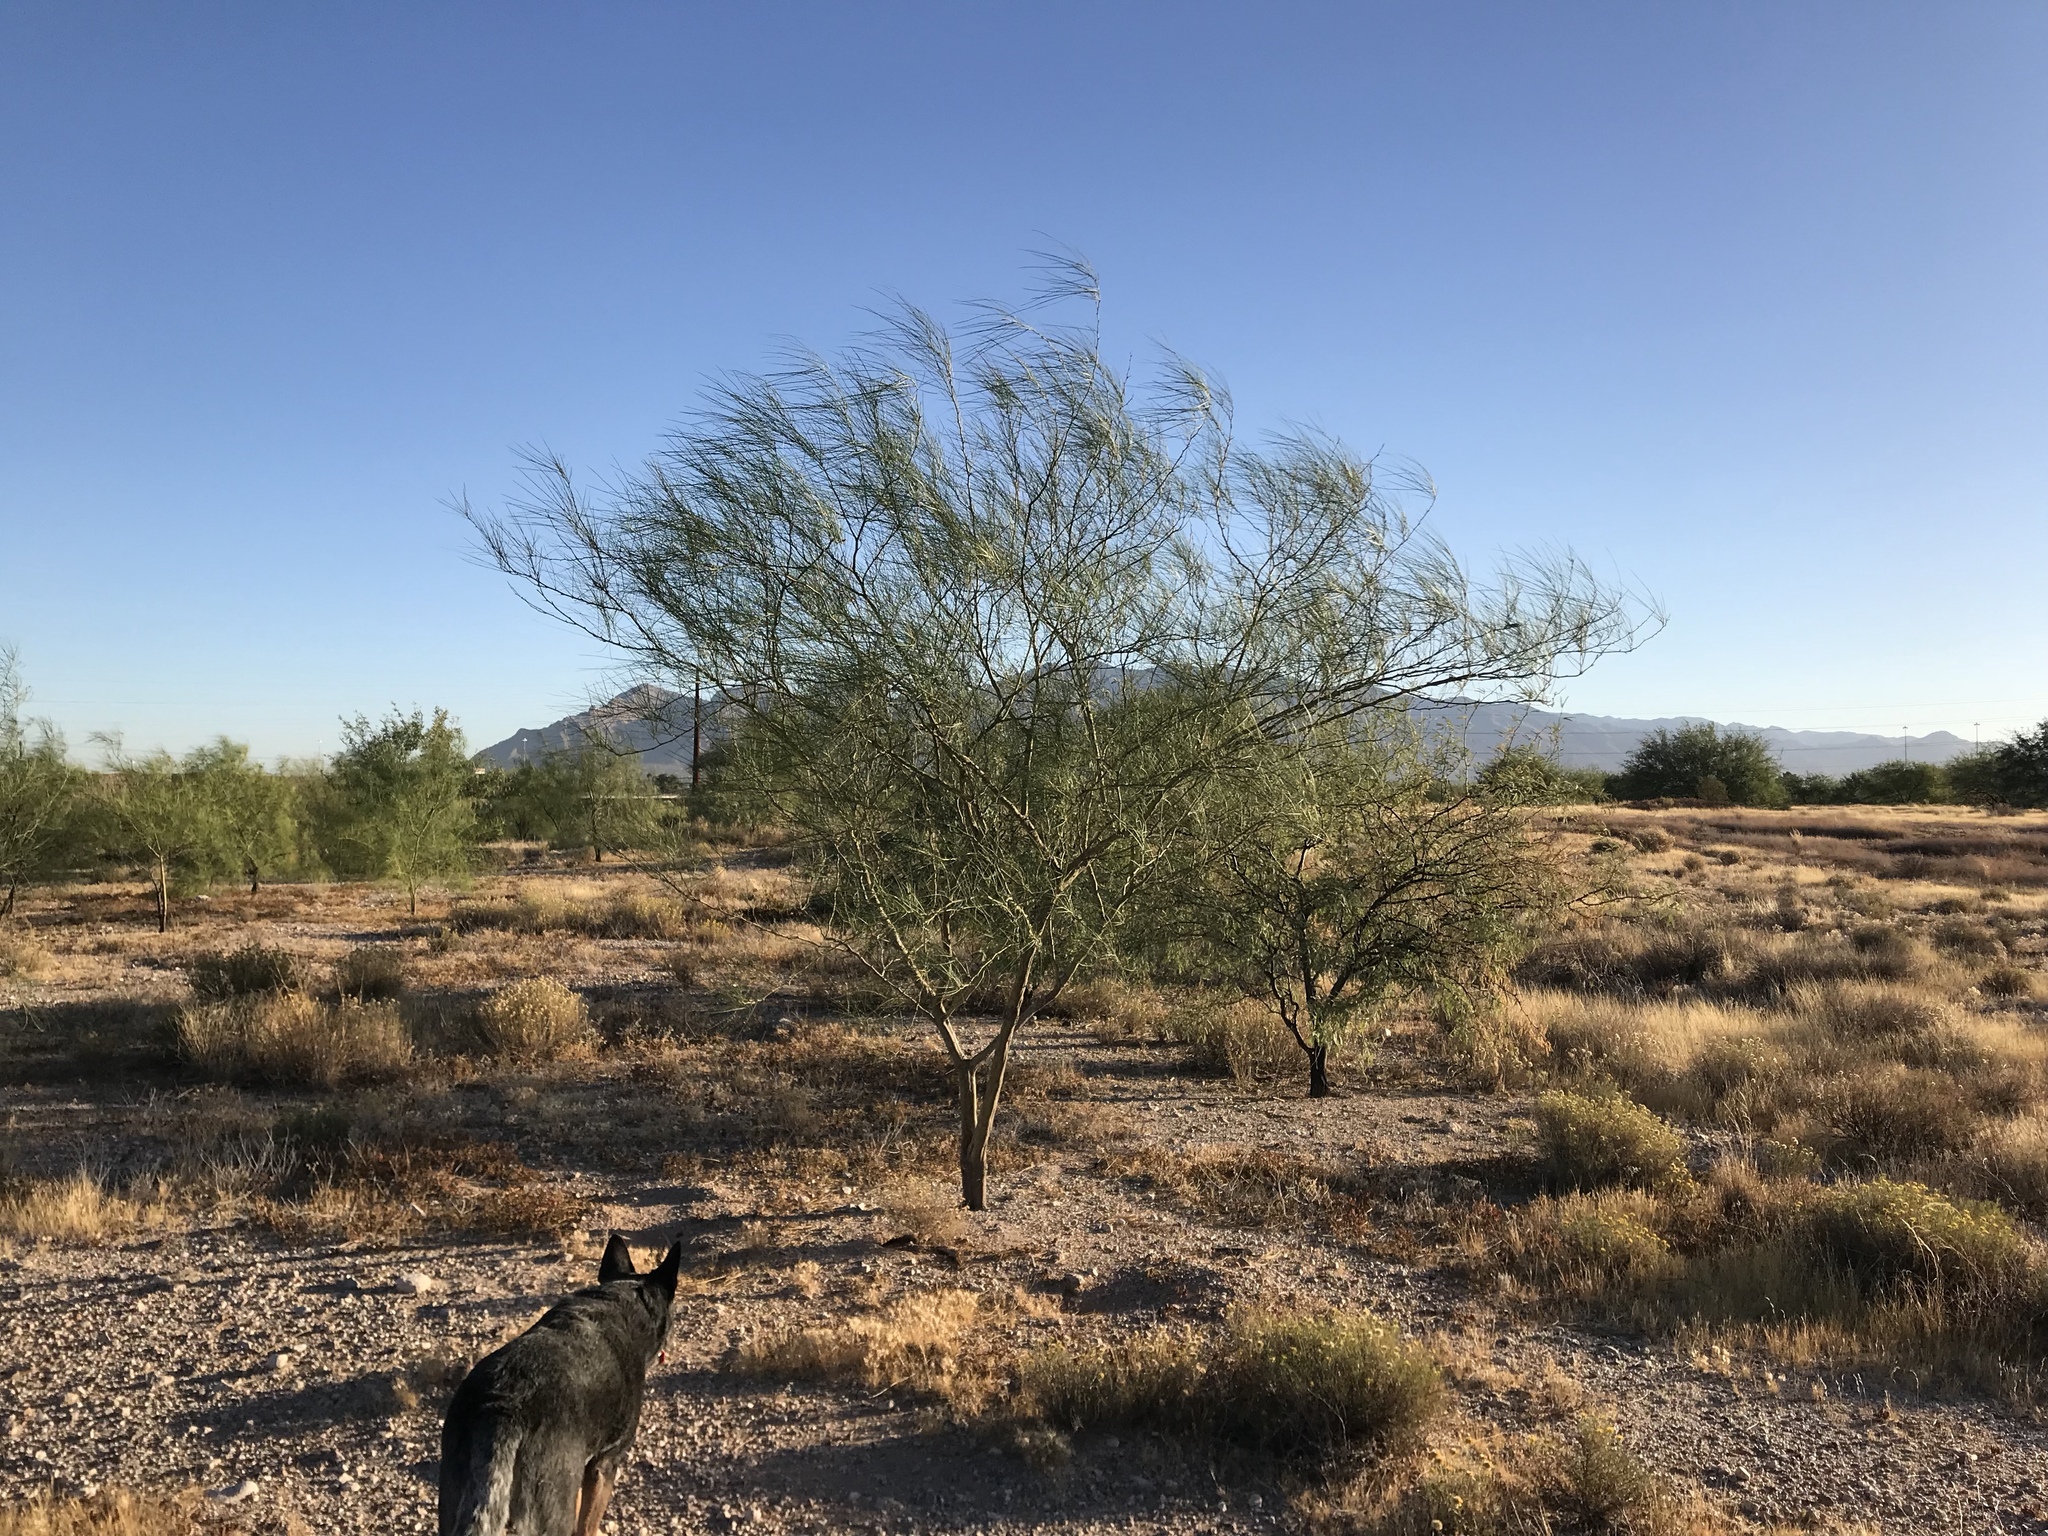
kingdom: Plantae
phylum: Tracheophyta
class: Magnoliopsida
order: Fabales
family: Fabaceae
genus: Parkinsonia
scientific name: Parkinsonia aculeata
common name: Jerusalem thorn
